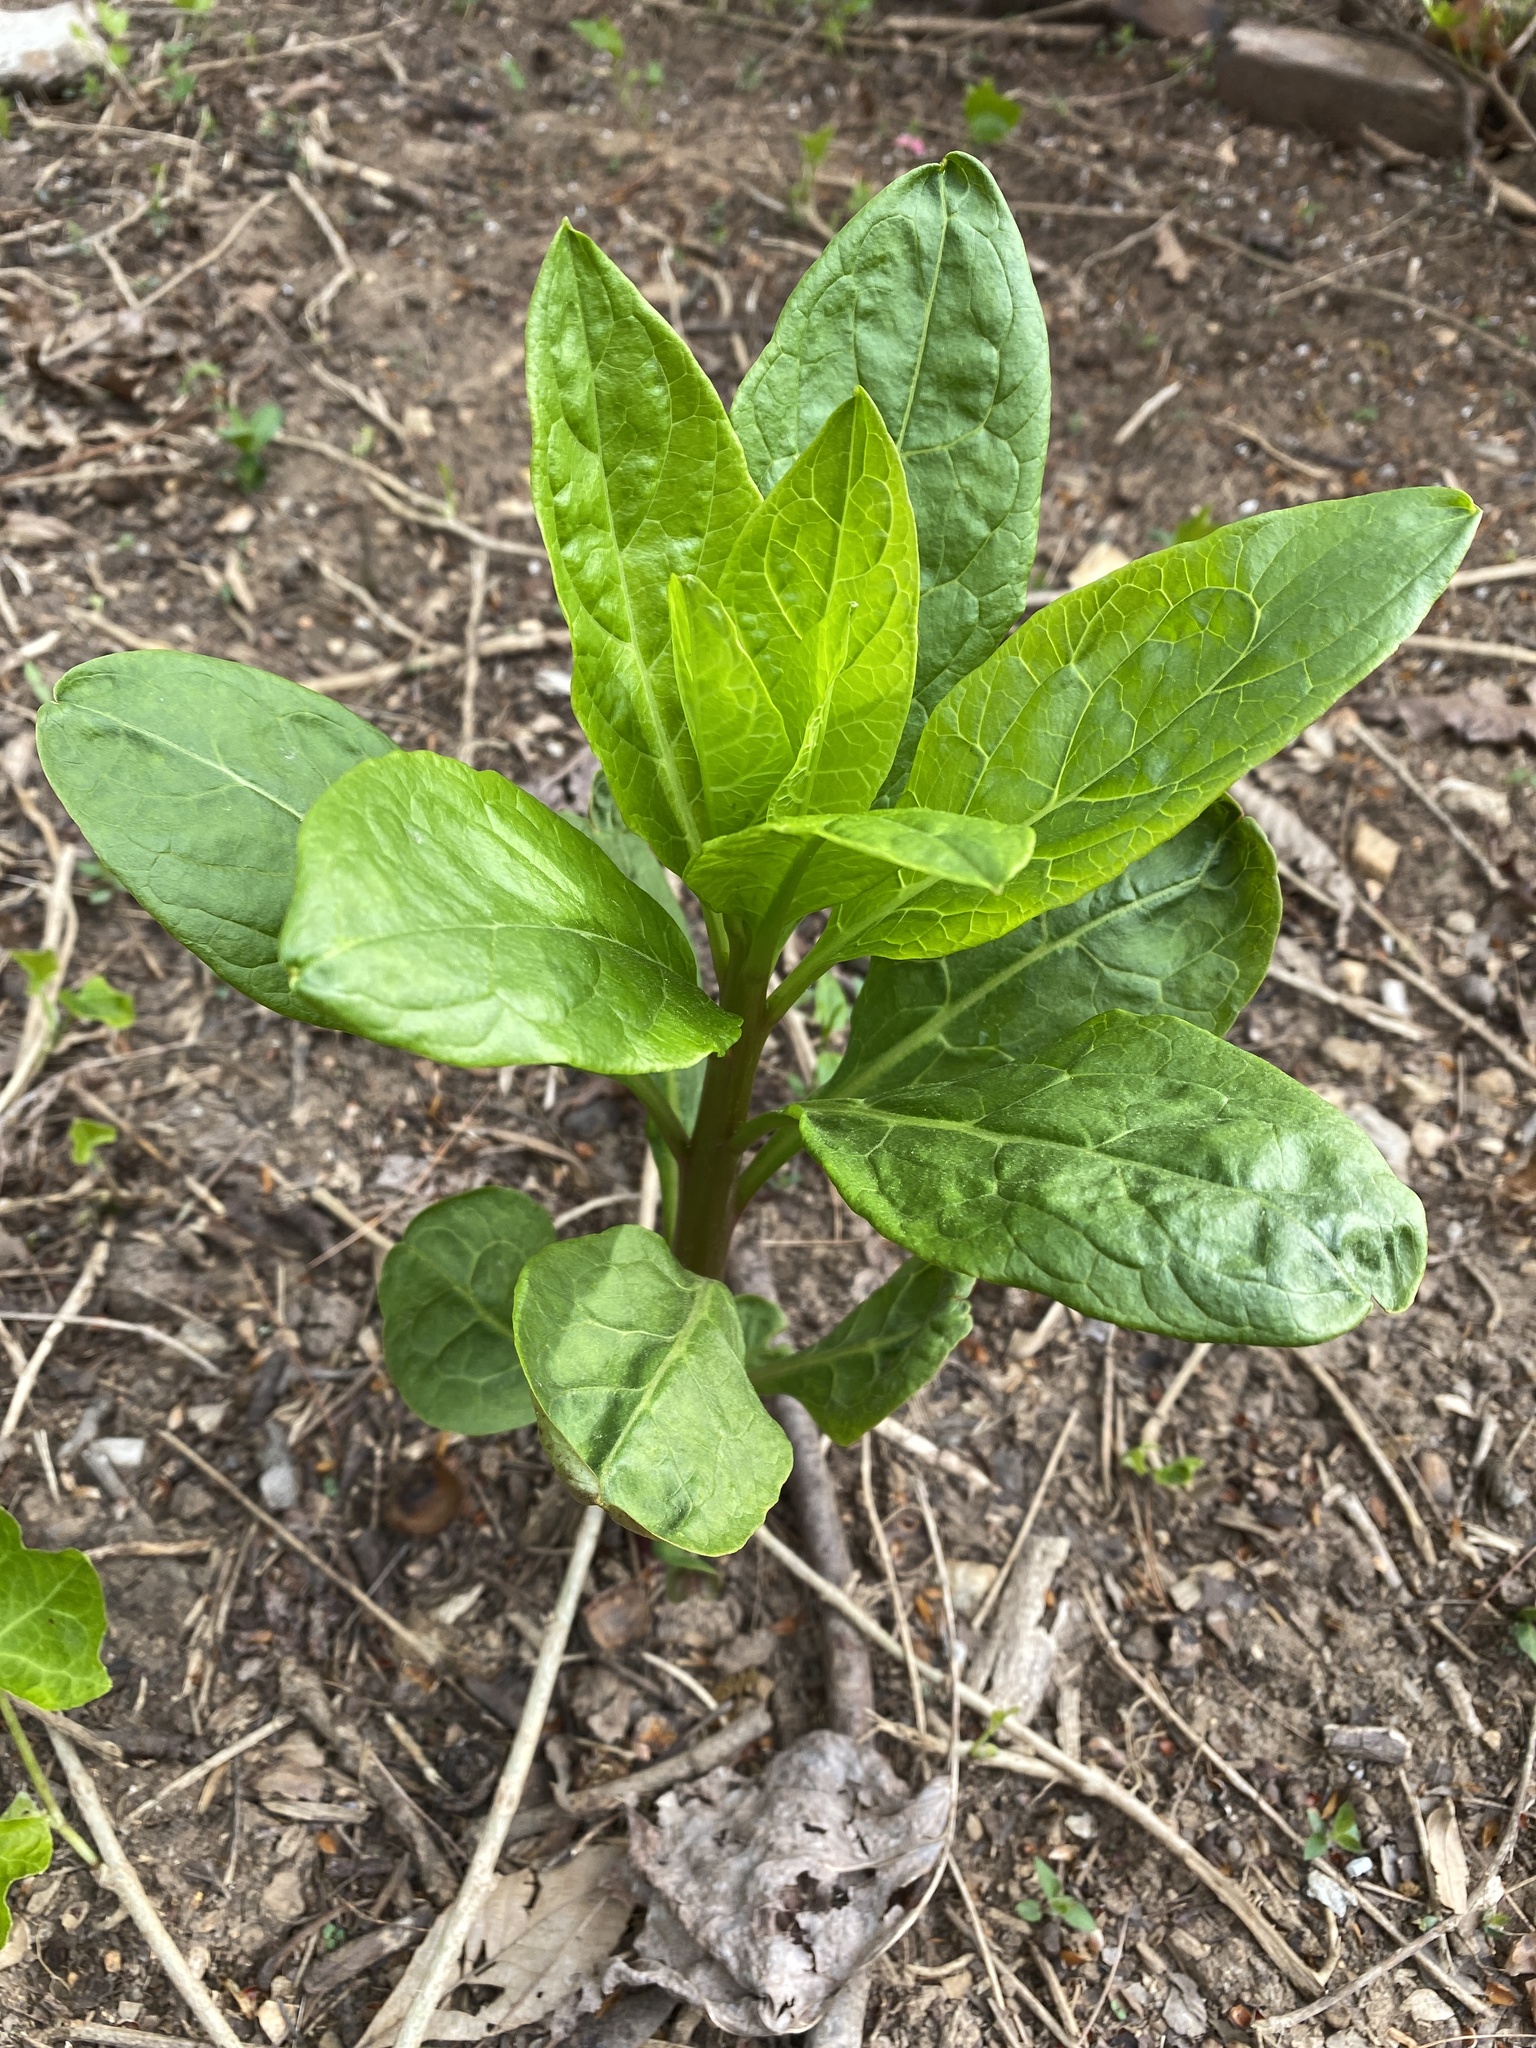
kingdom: Plantae
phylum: Tracheophyta
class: Magnoliopsida
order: Caryophyllales
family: Phytolaccaceae
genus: Phytolacca
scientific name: Phytolacca americana
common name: American pokeweed
